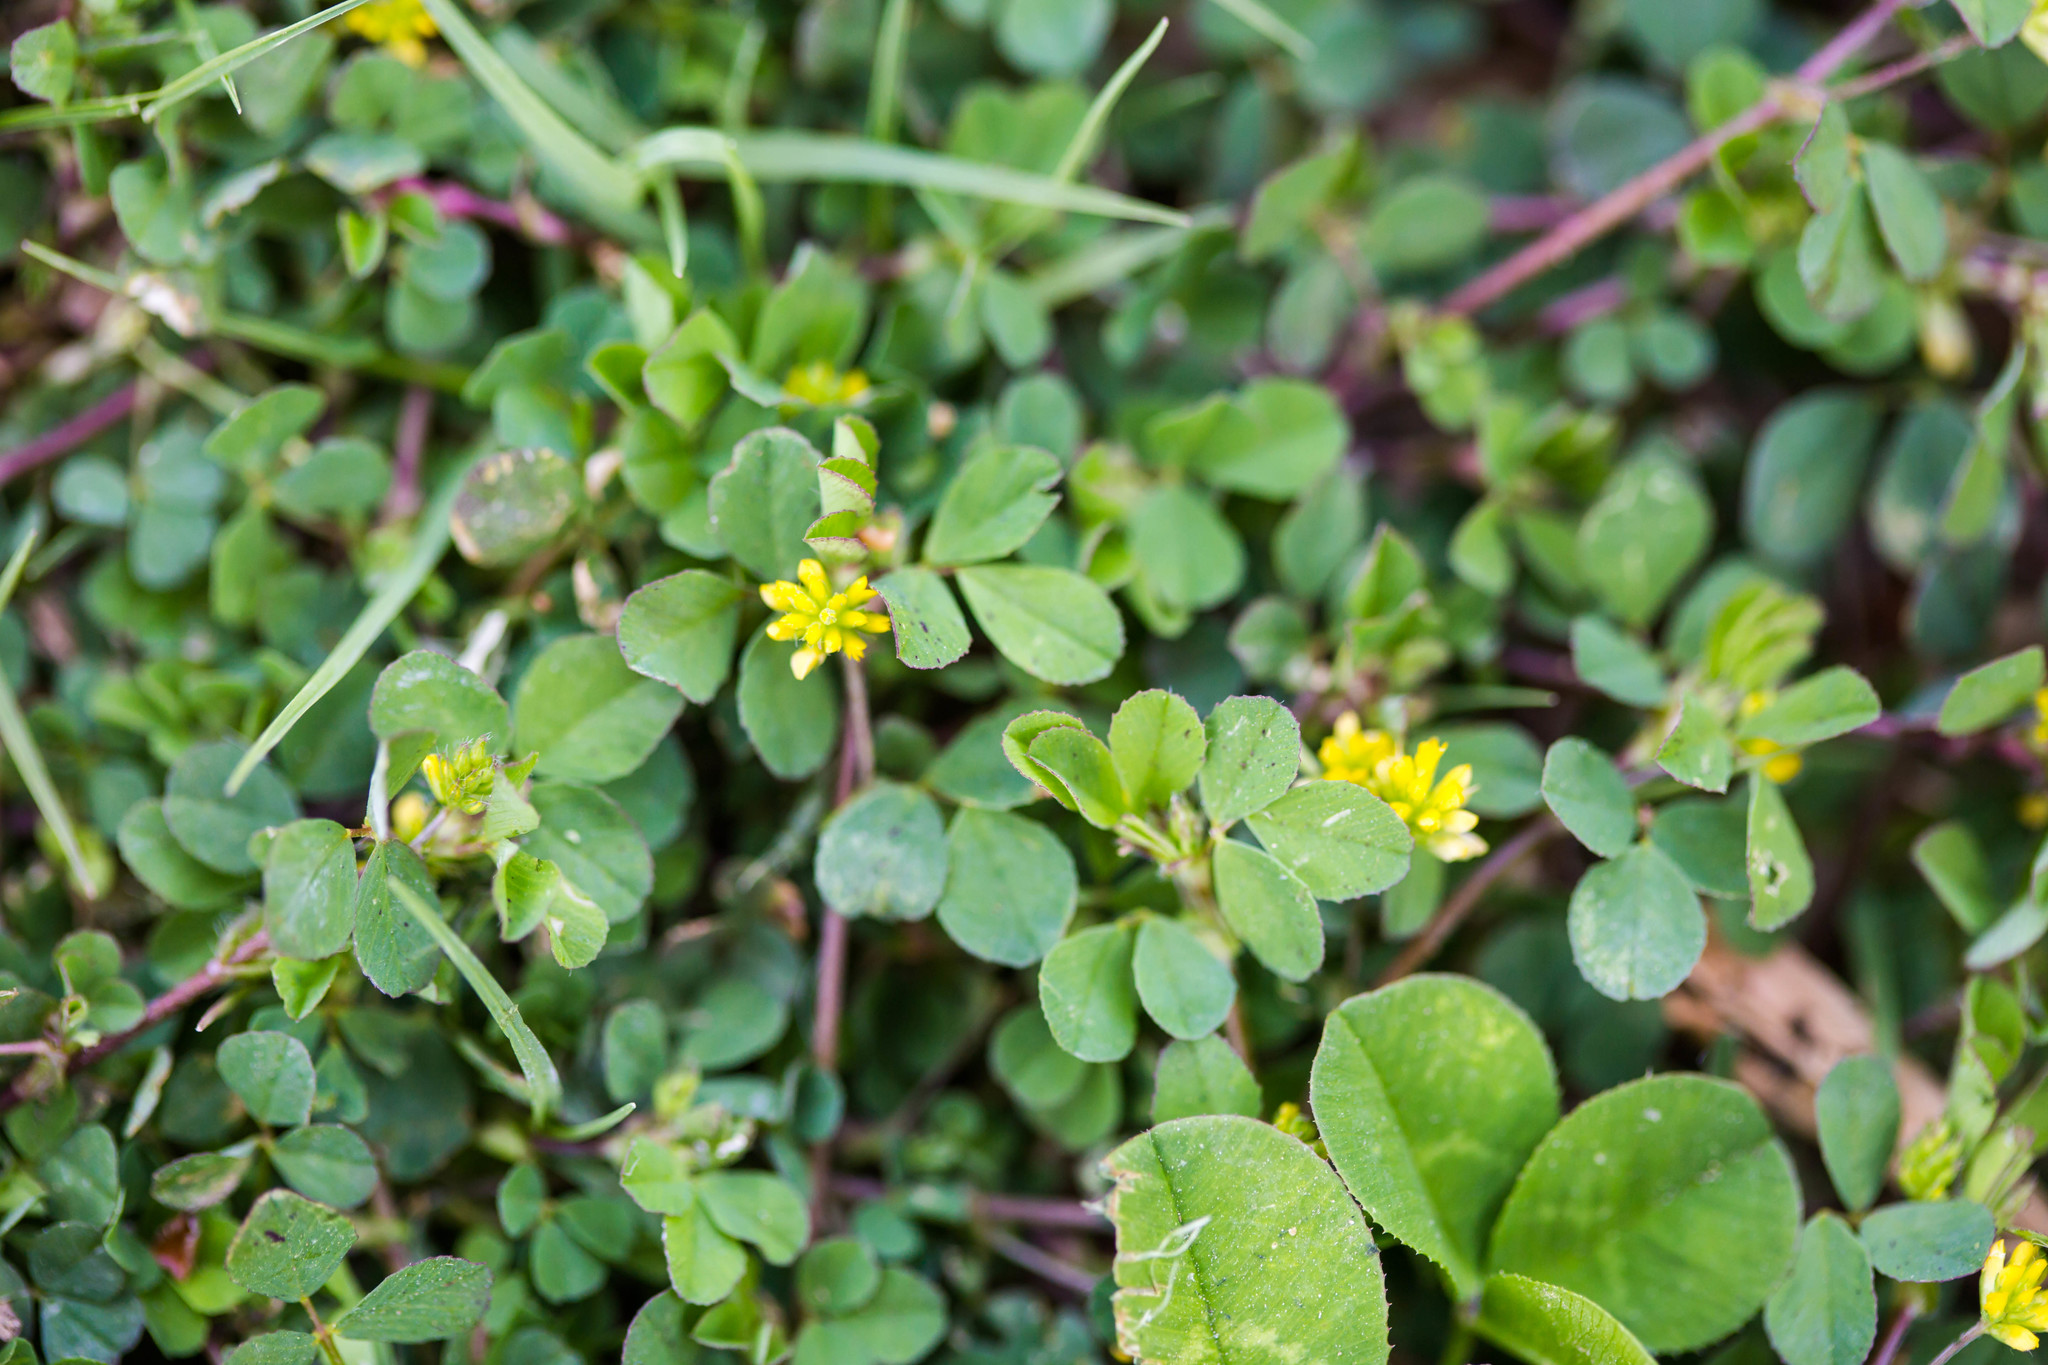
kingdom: Plantae
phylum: Tracheophyta
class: Magnoliopsida
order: Fabales
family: Fabaceae
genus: Trifolium
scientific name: Trifolium dubium
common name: Suckling clover
